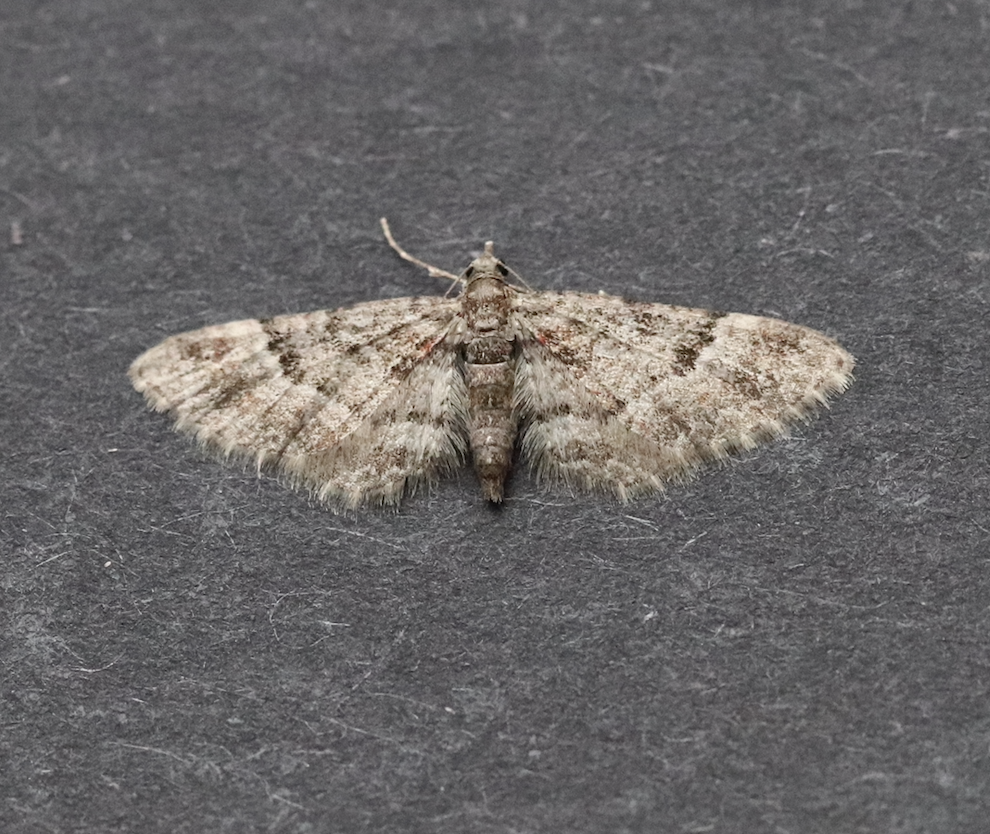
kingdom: Animalia
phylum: Arthropoda
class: Insecta
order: Lepidoptera
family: Geometridae
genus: Gymnoscelis
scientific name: Gymnoscelis rufifasciata
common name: Double-striped pug
